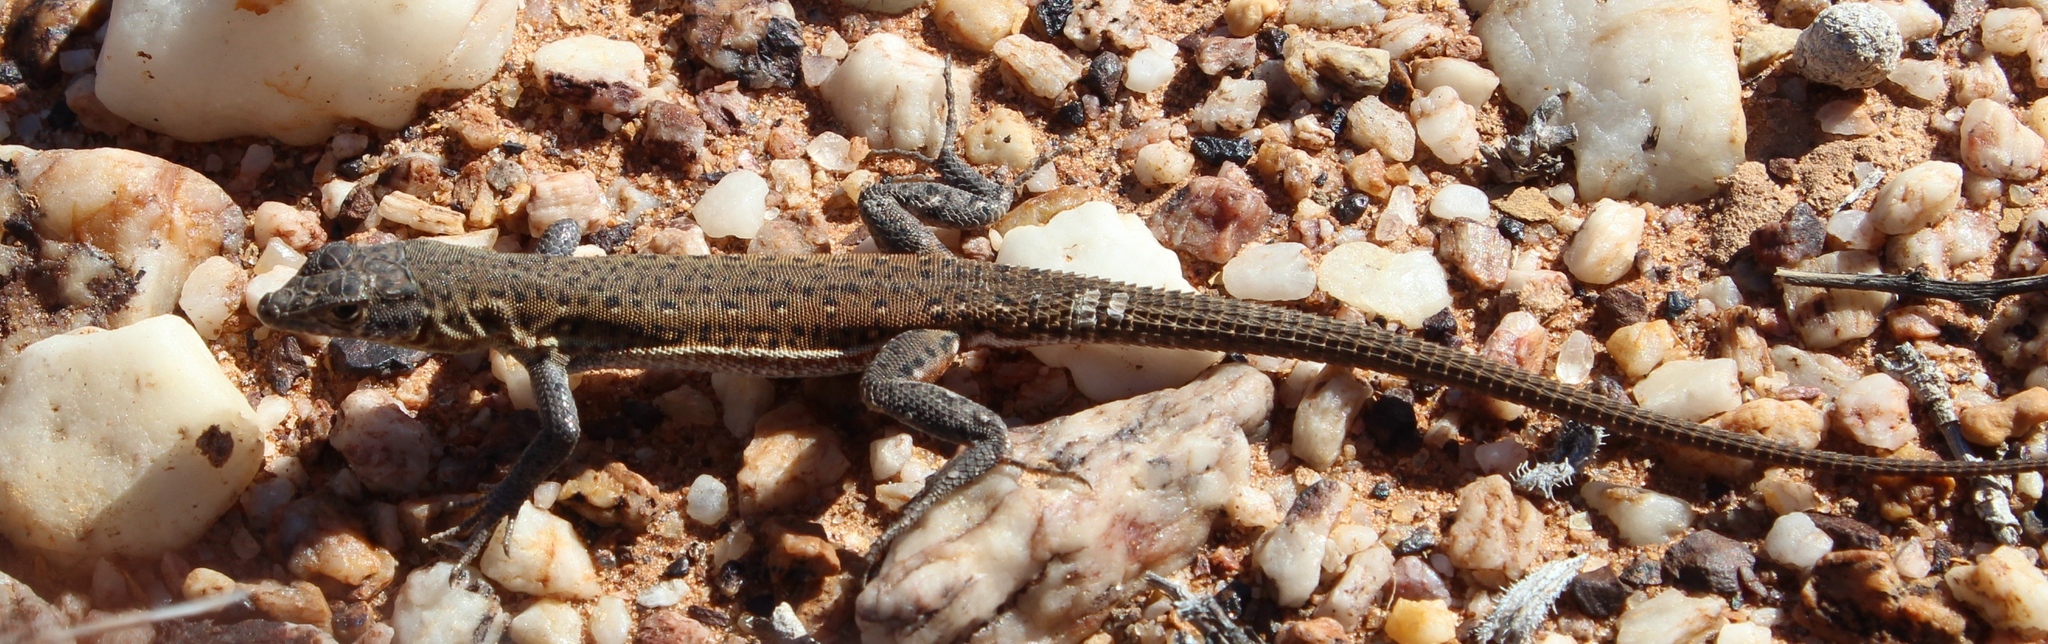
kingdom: Animalia
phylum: Chordata
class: Squamata
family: Lacertidae
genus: Pedioplanis
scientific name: Pedioplanis lineoocellata
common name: Spotted sand lizard
